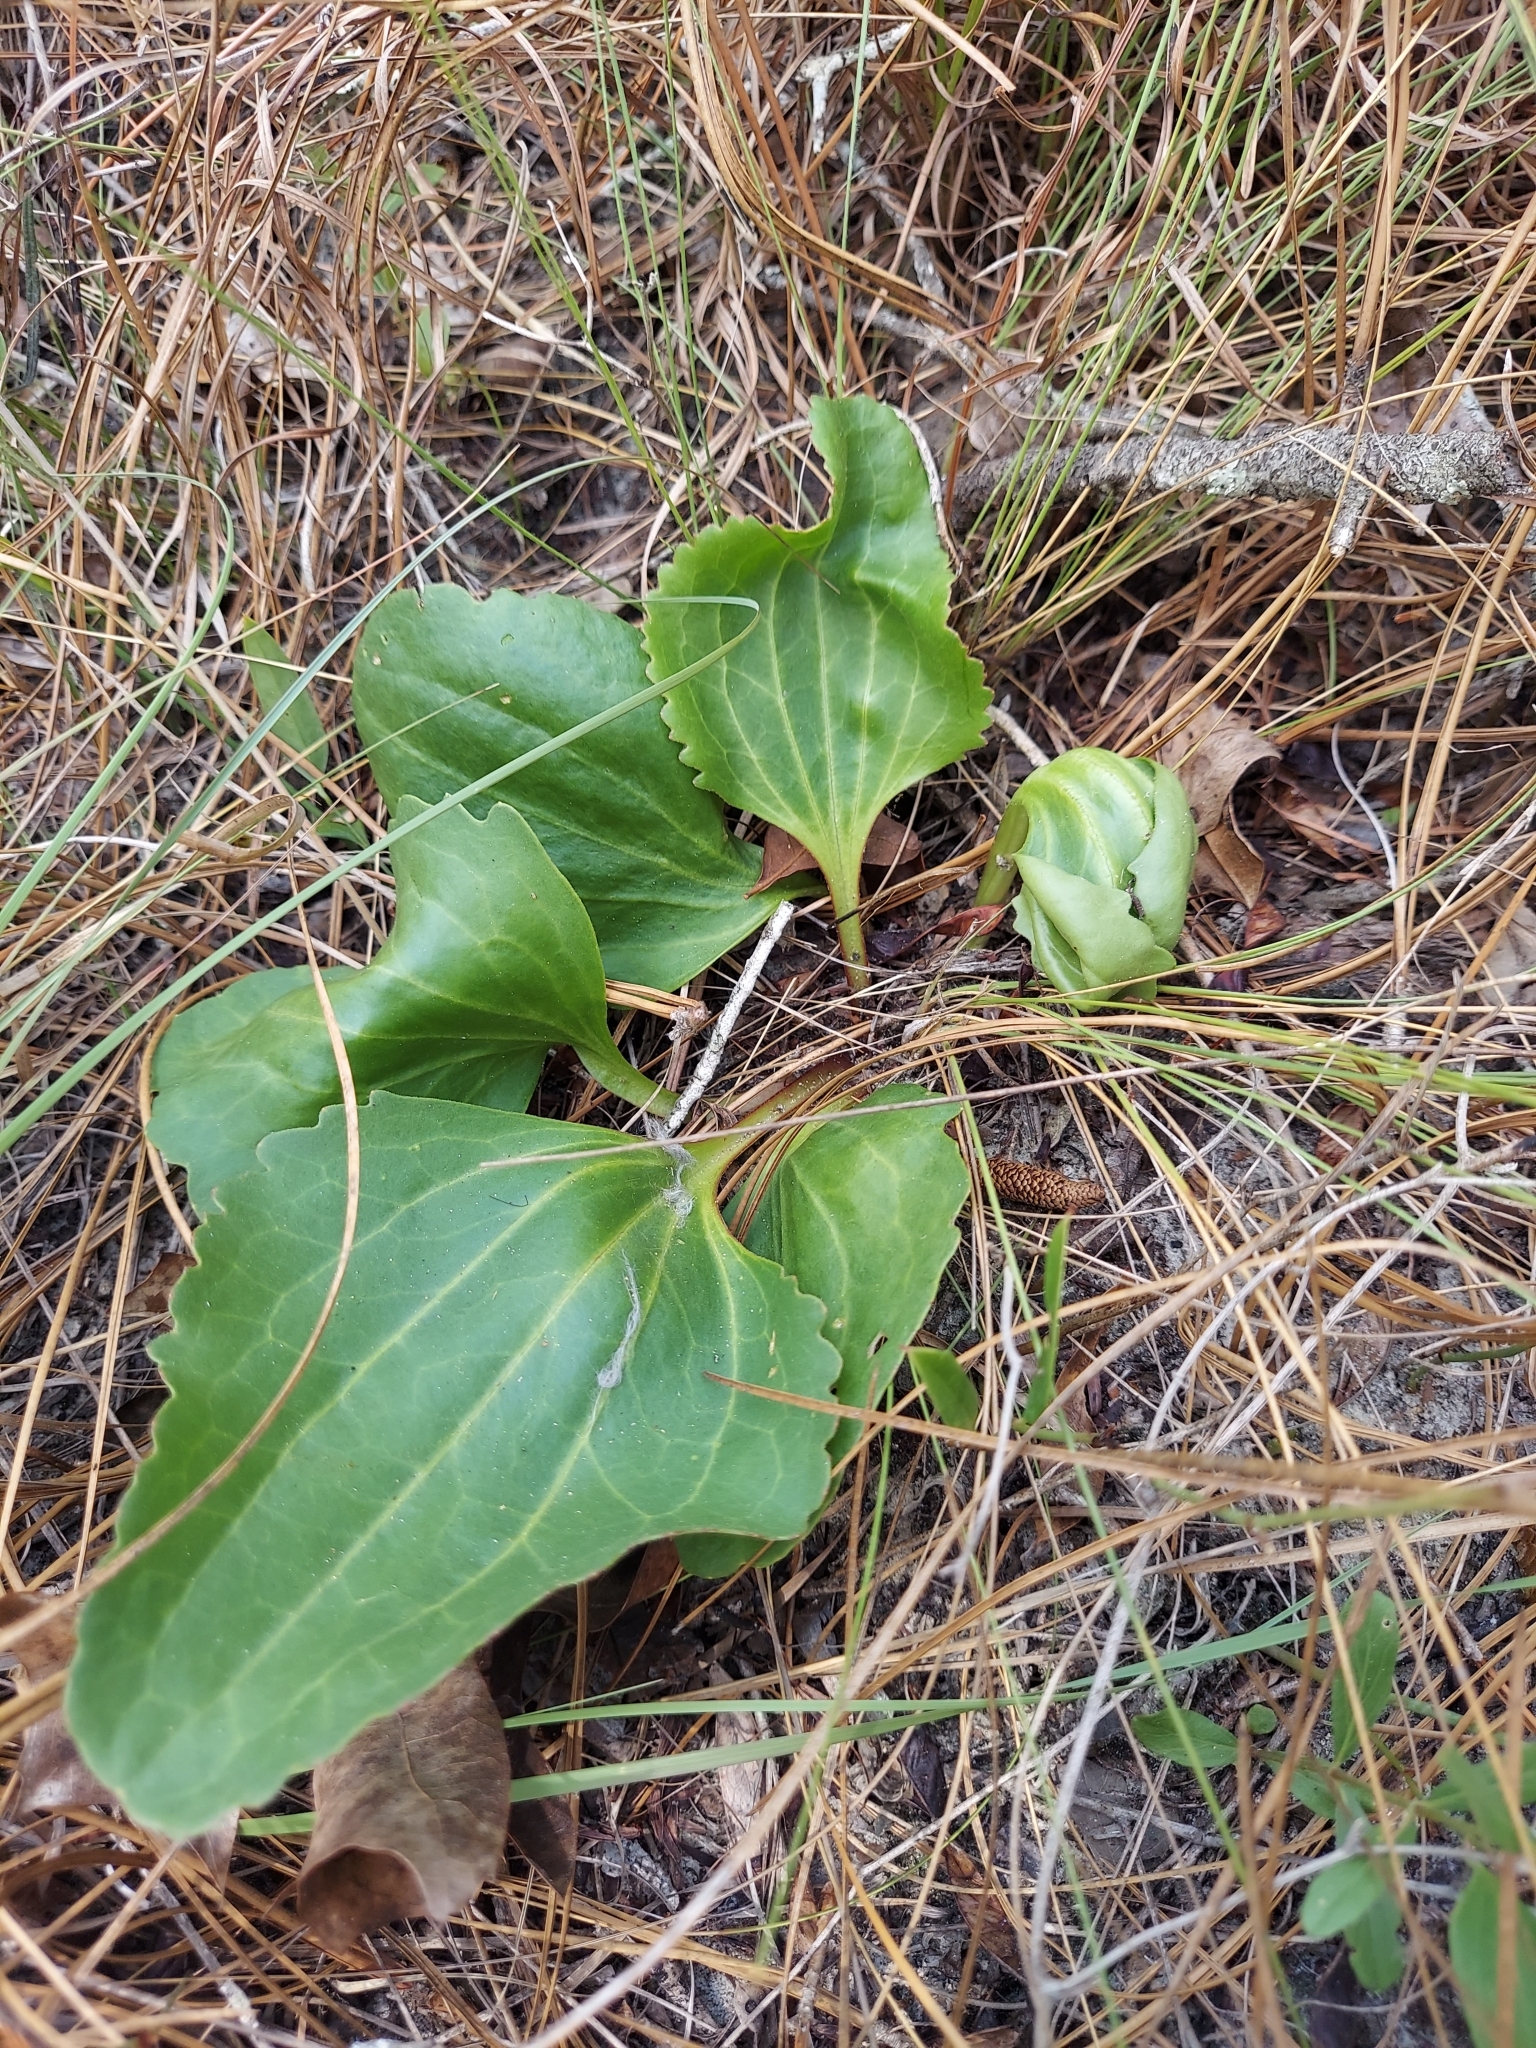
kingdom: Plantae
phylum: Tracheophyta
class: Magnoliopsida
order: Asterales
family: Asteraceae
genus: Arnoglossum
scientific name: Arnoglossum floridanum
